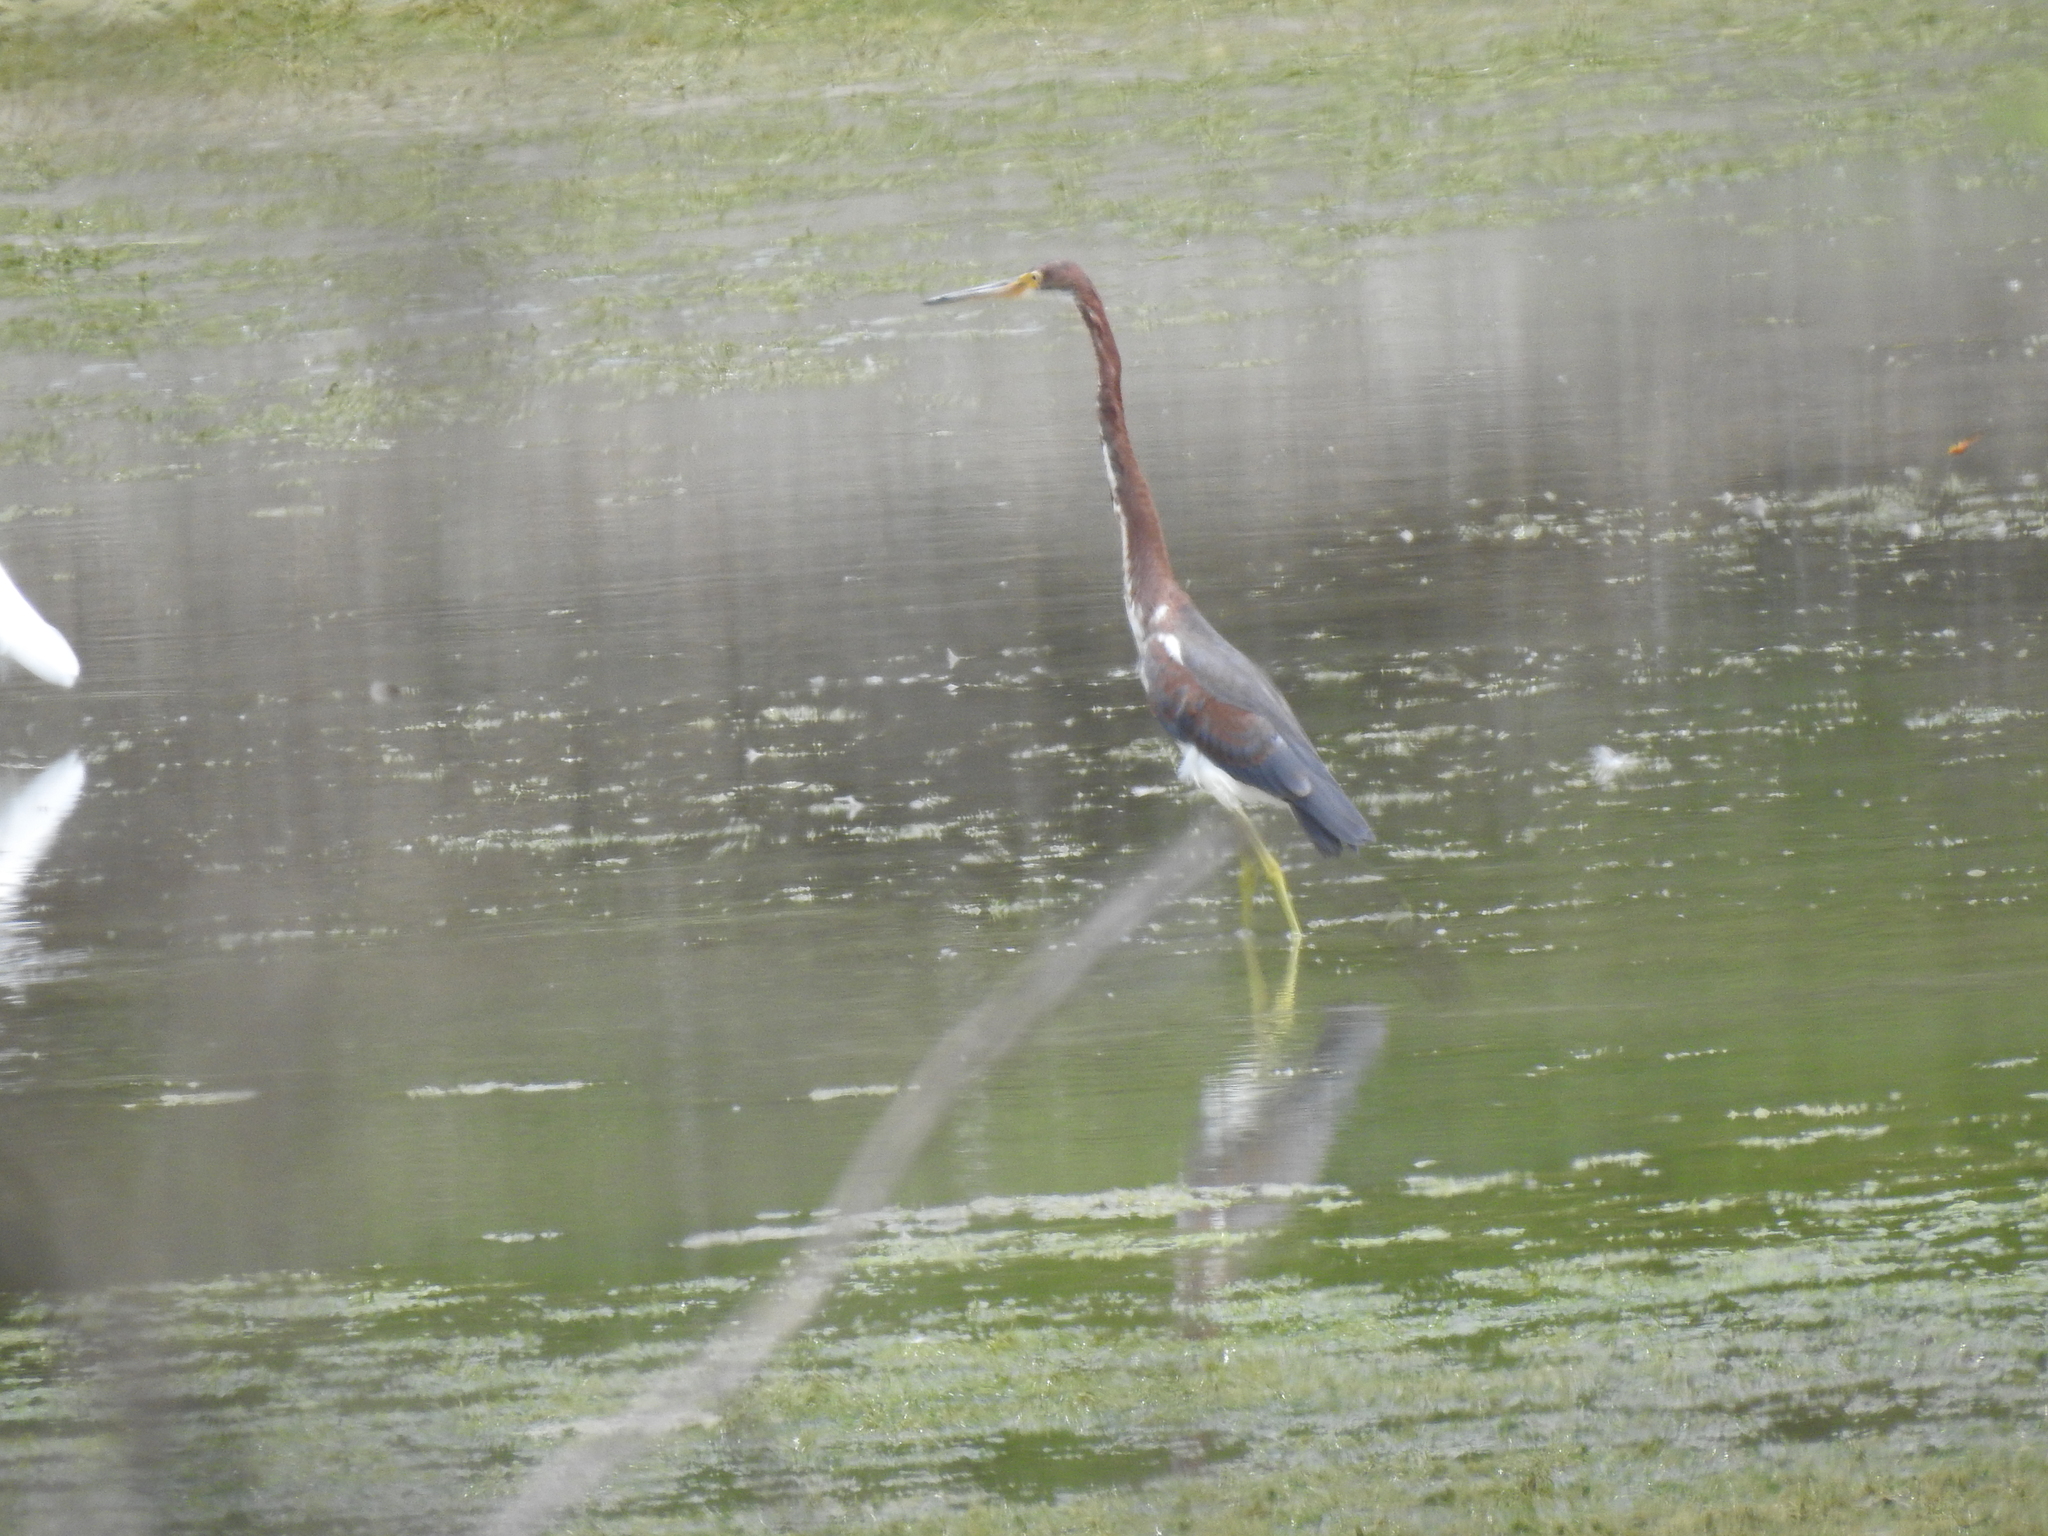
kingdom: Animalia
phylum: Chordata
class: Aves
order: Pelecaniformes
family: Ardeidae
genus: Egretta
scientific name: Egretta tricolor
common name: Tricolored heron
